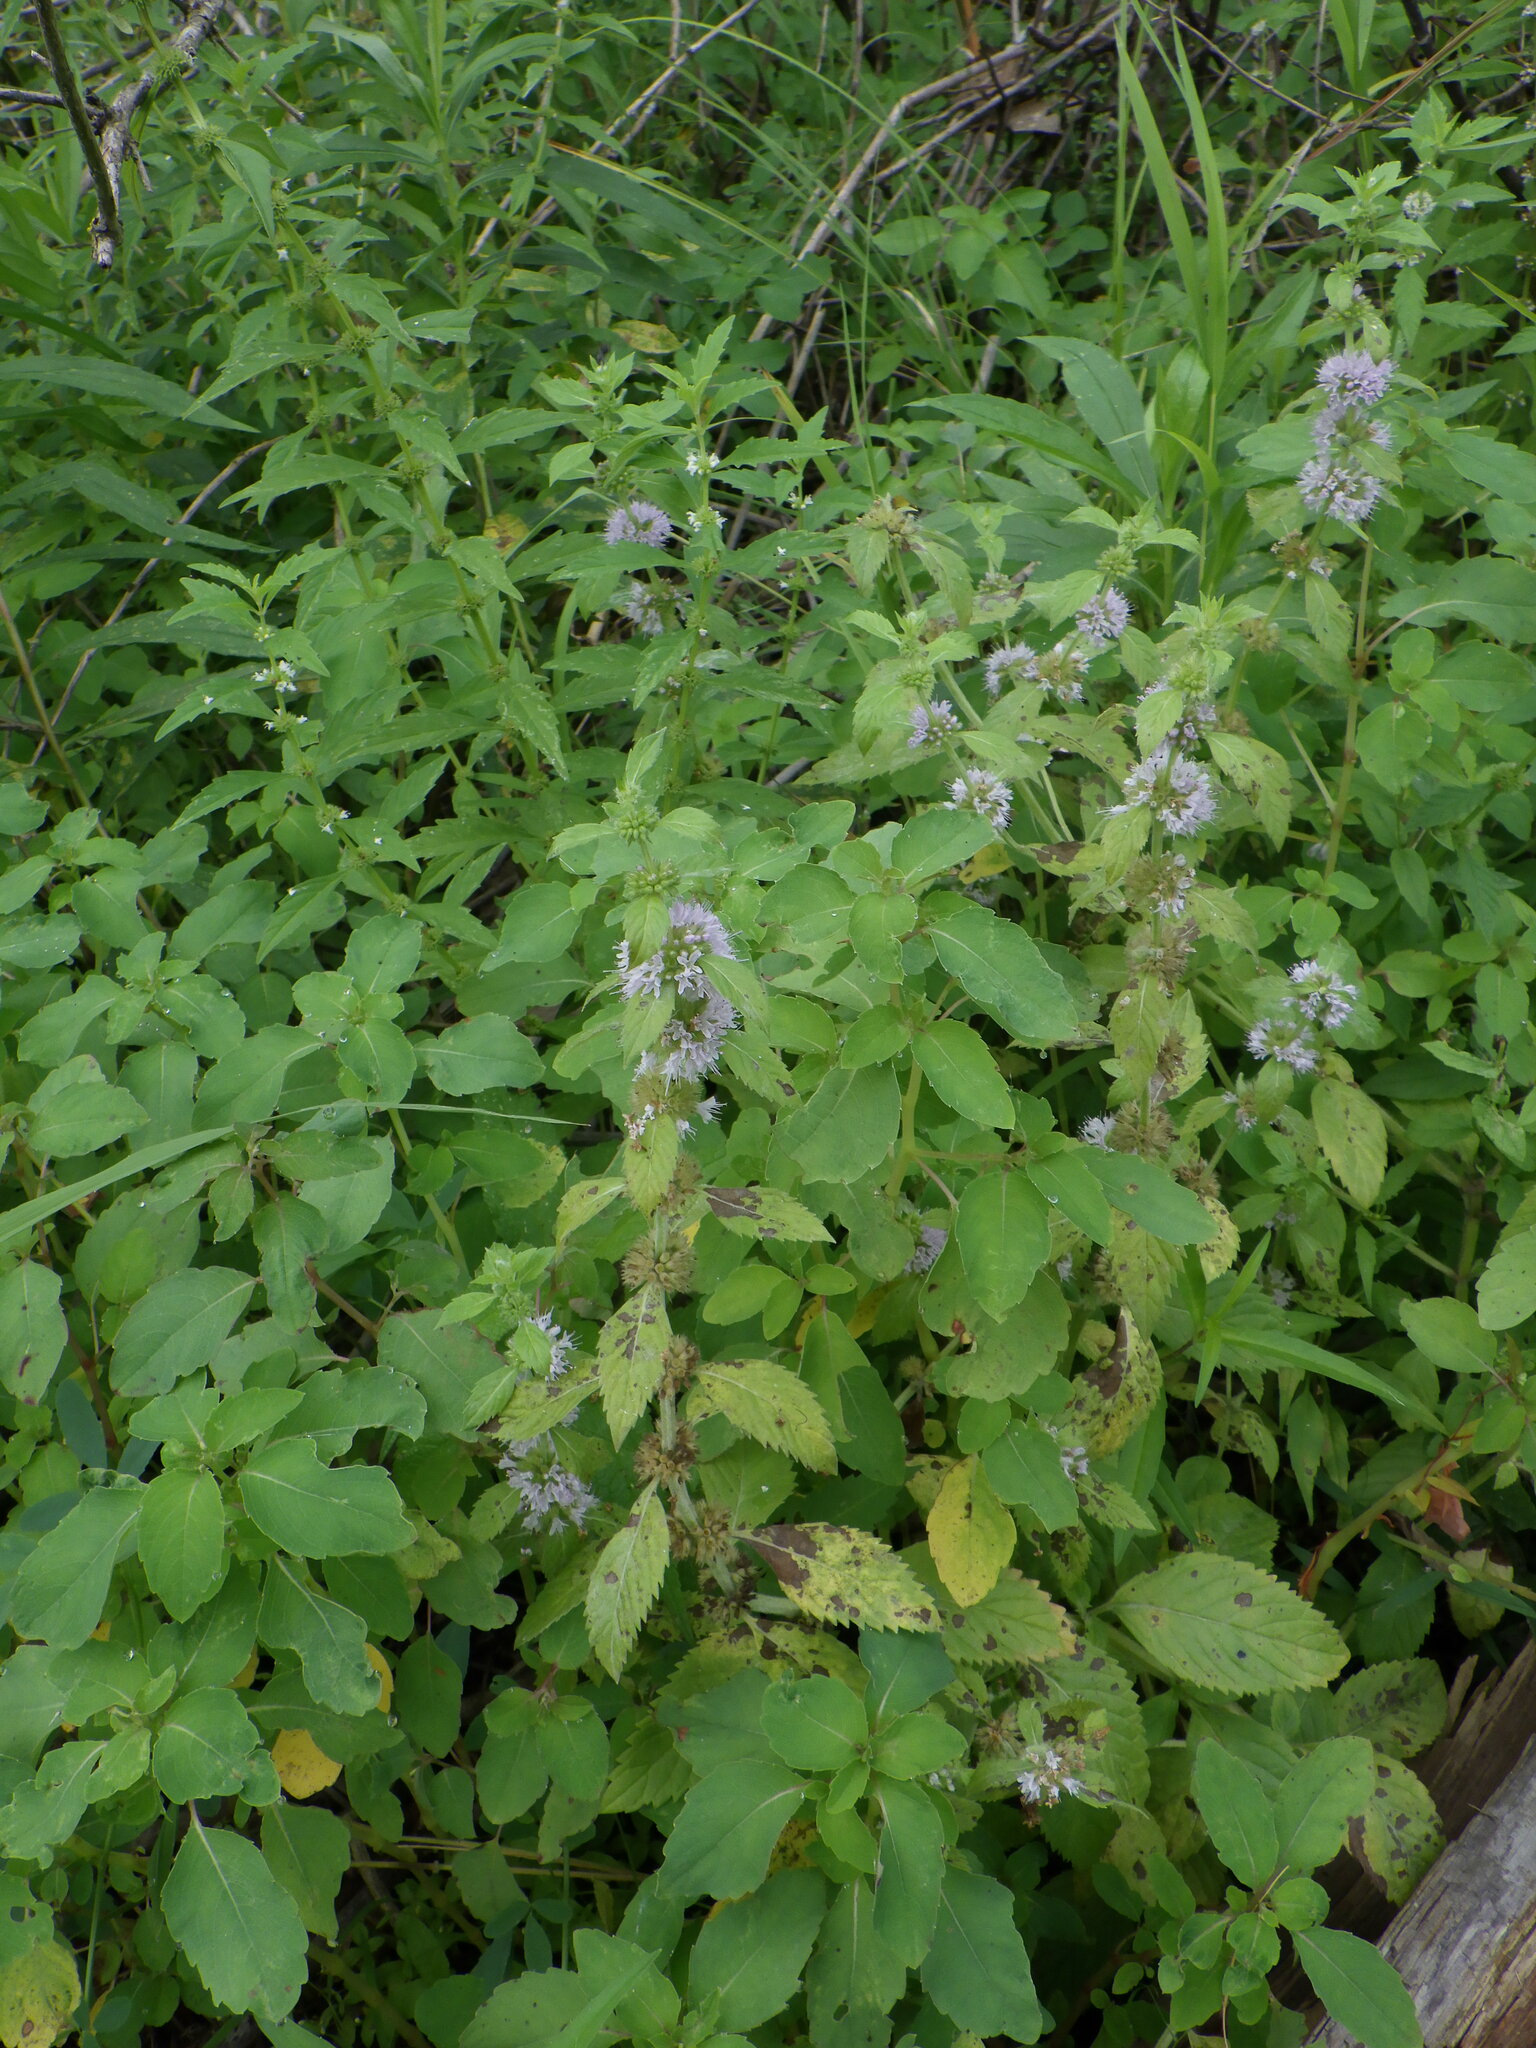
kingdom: Plantae
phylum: Tracheophyta
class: Magnoliopsida
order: Lamiales
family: Lamiaceae
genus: Mentha
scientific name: Mentha canadensis
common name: American corn mint
